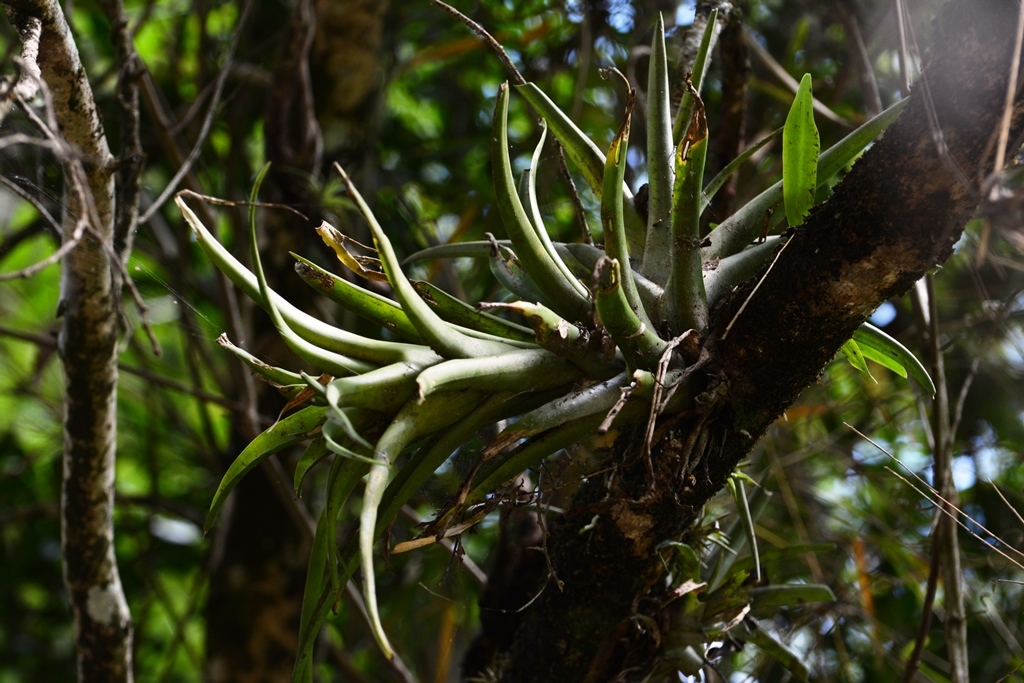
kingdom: Plantae
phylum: Tracheophyta
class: Liliopsida
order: Poales
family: Bromeliaceae
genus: Tillandsia
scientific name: Tillandsia capitata
